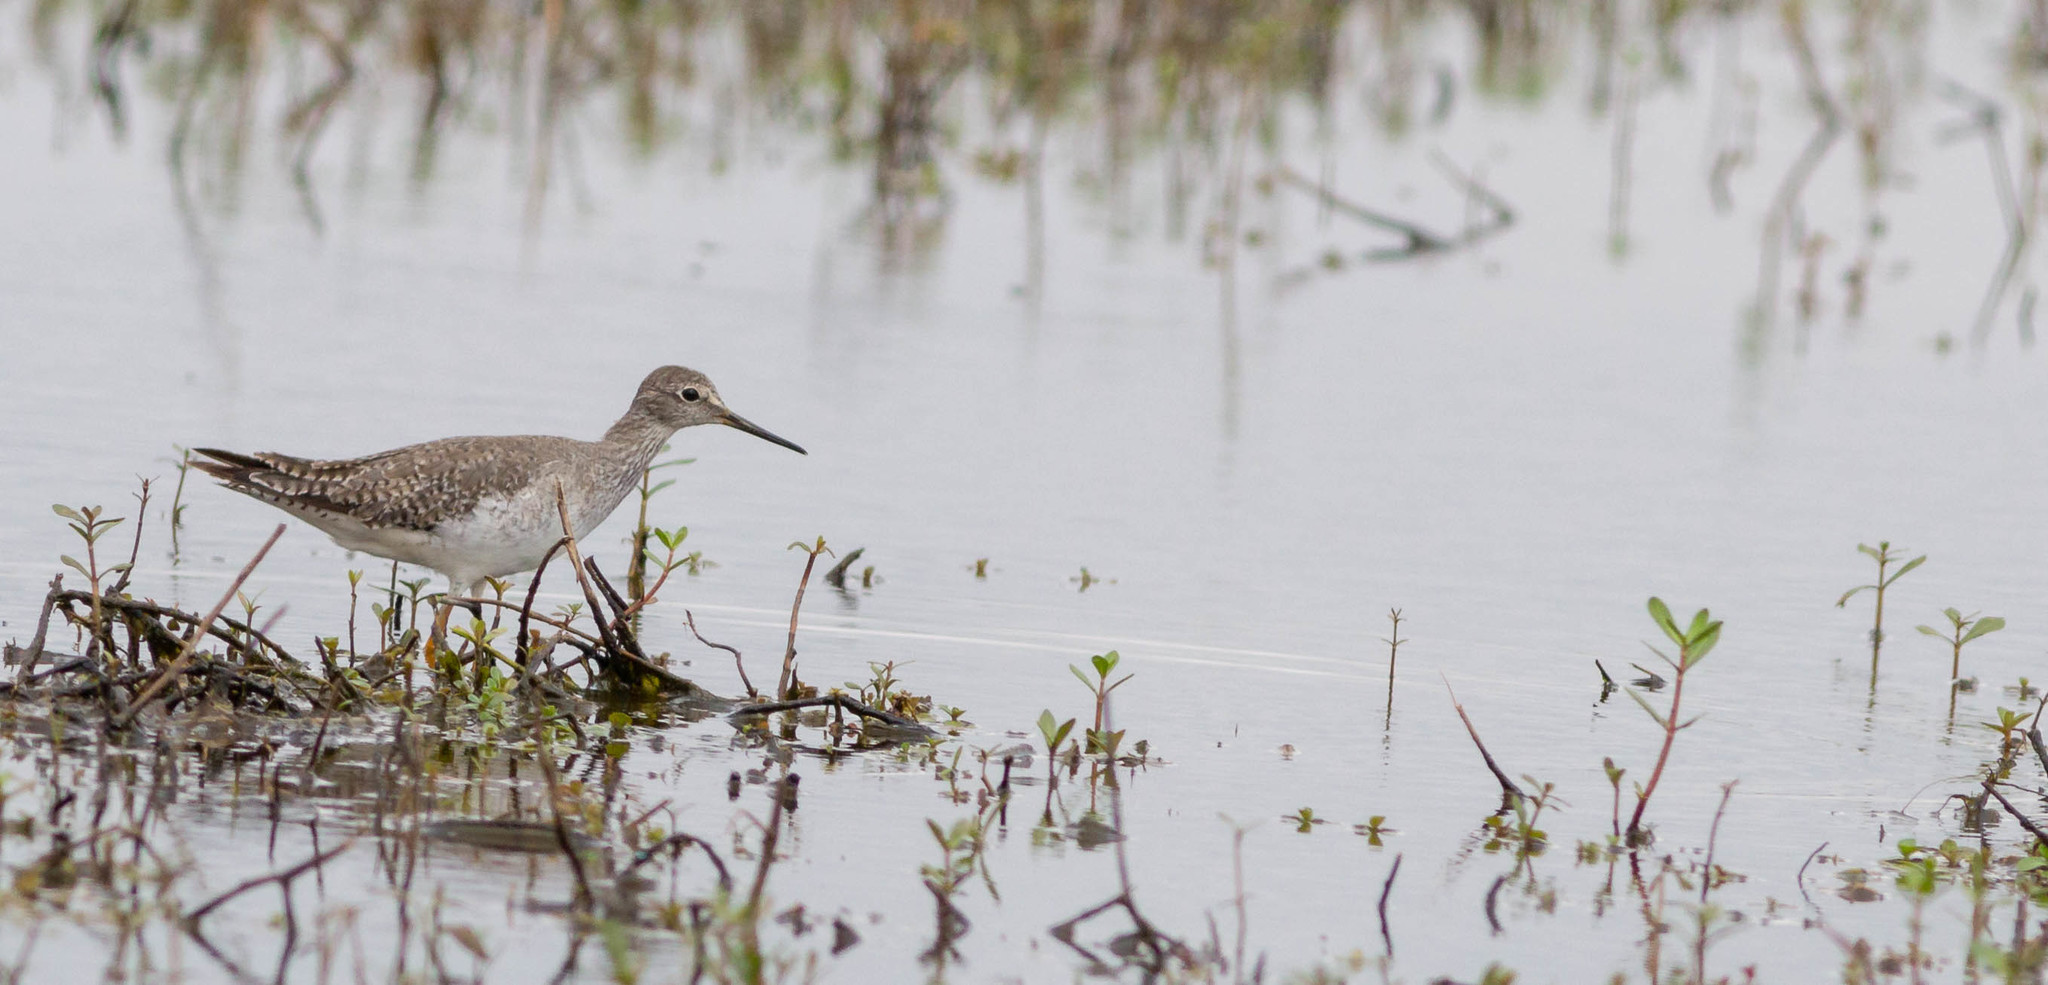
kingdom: Animalia
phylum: Chordata
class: Aves
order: Charadriiformes
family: Scolopacidae
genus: Tringa
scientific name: Tringa flavipes
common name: Lesser yellowlegs
